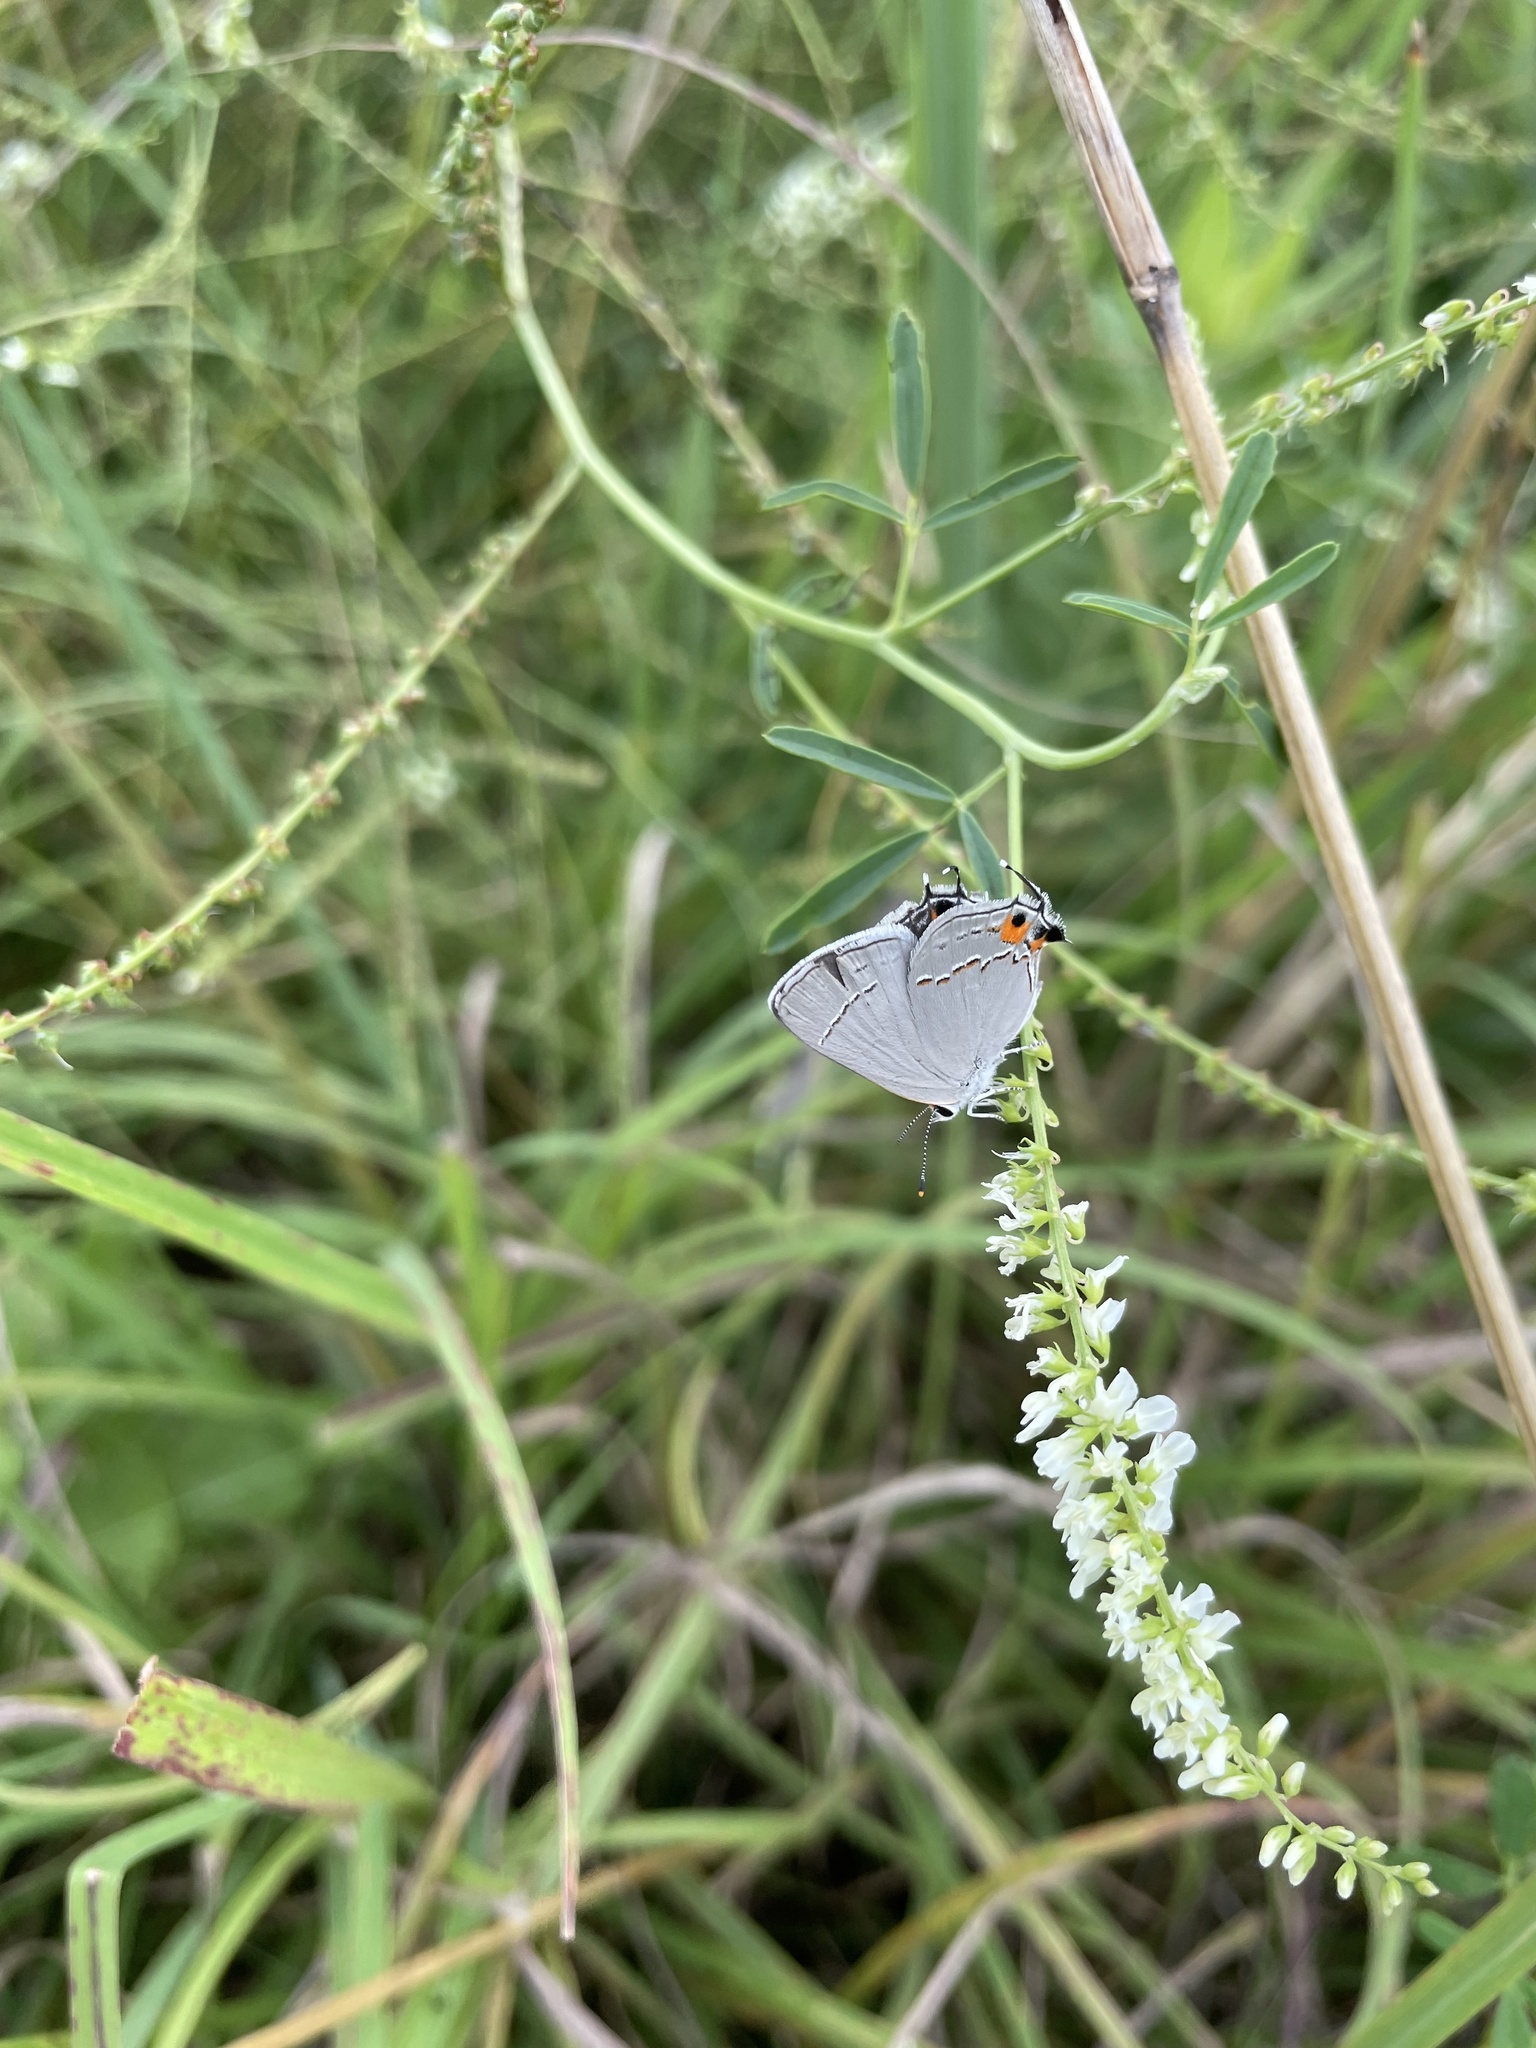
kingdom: Animalia
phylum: Arthropoda
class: Insecta
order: Lepidoptera
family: Lycaenidae
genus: Strymon
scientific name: Strymon melinus
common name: Gray hairstreak
